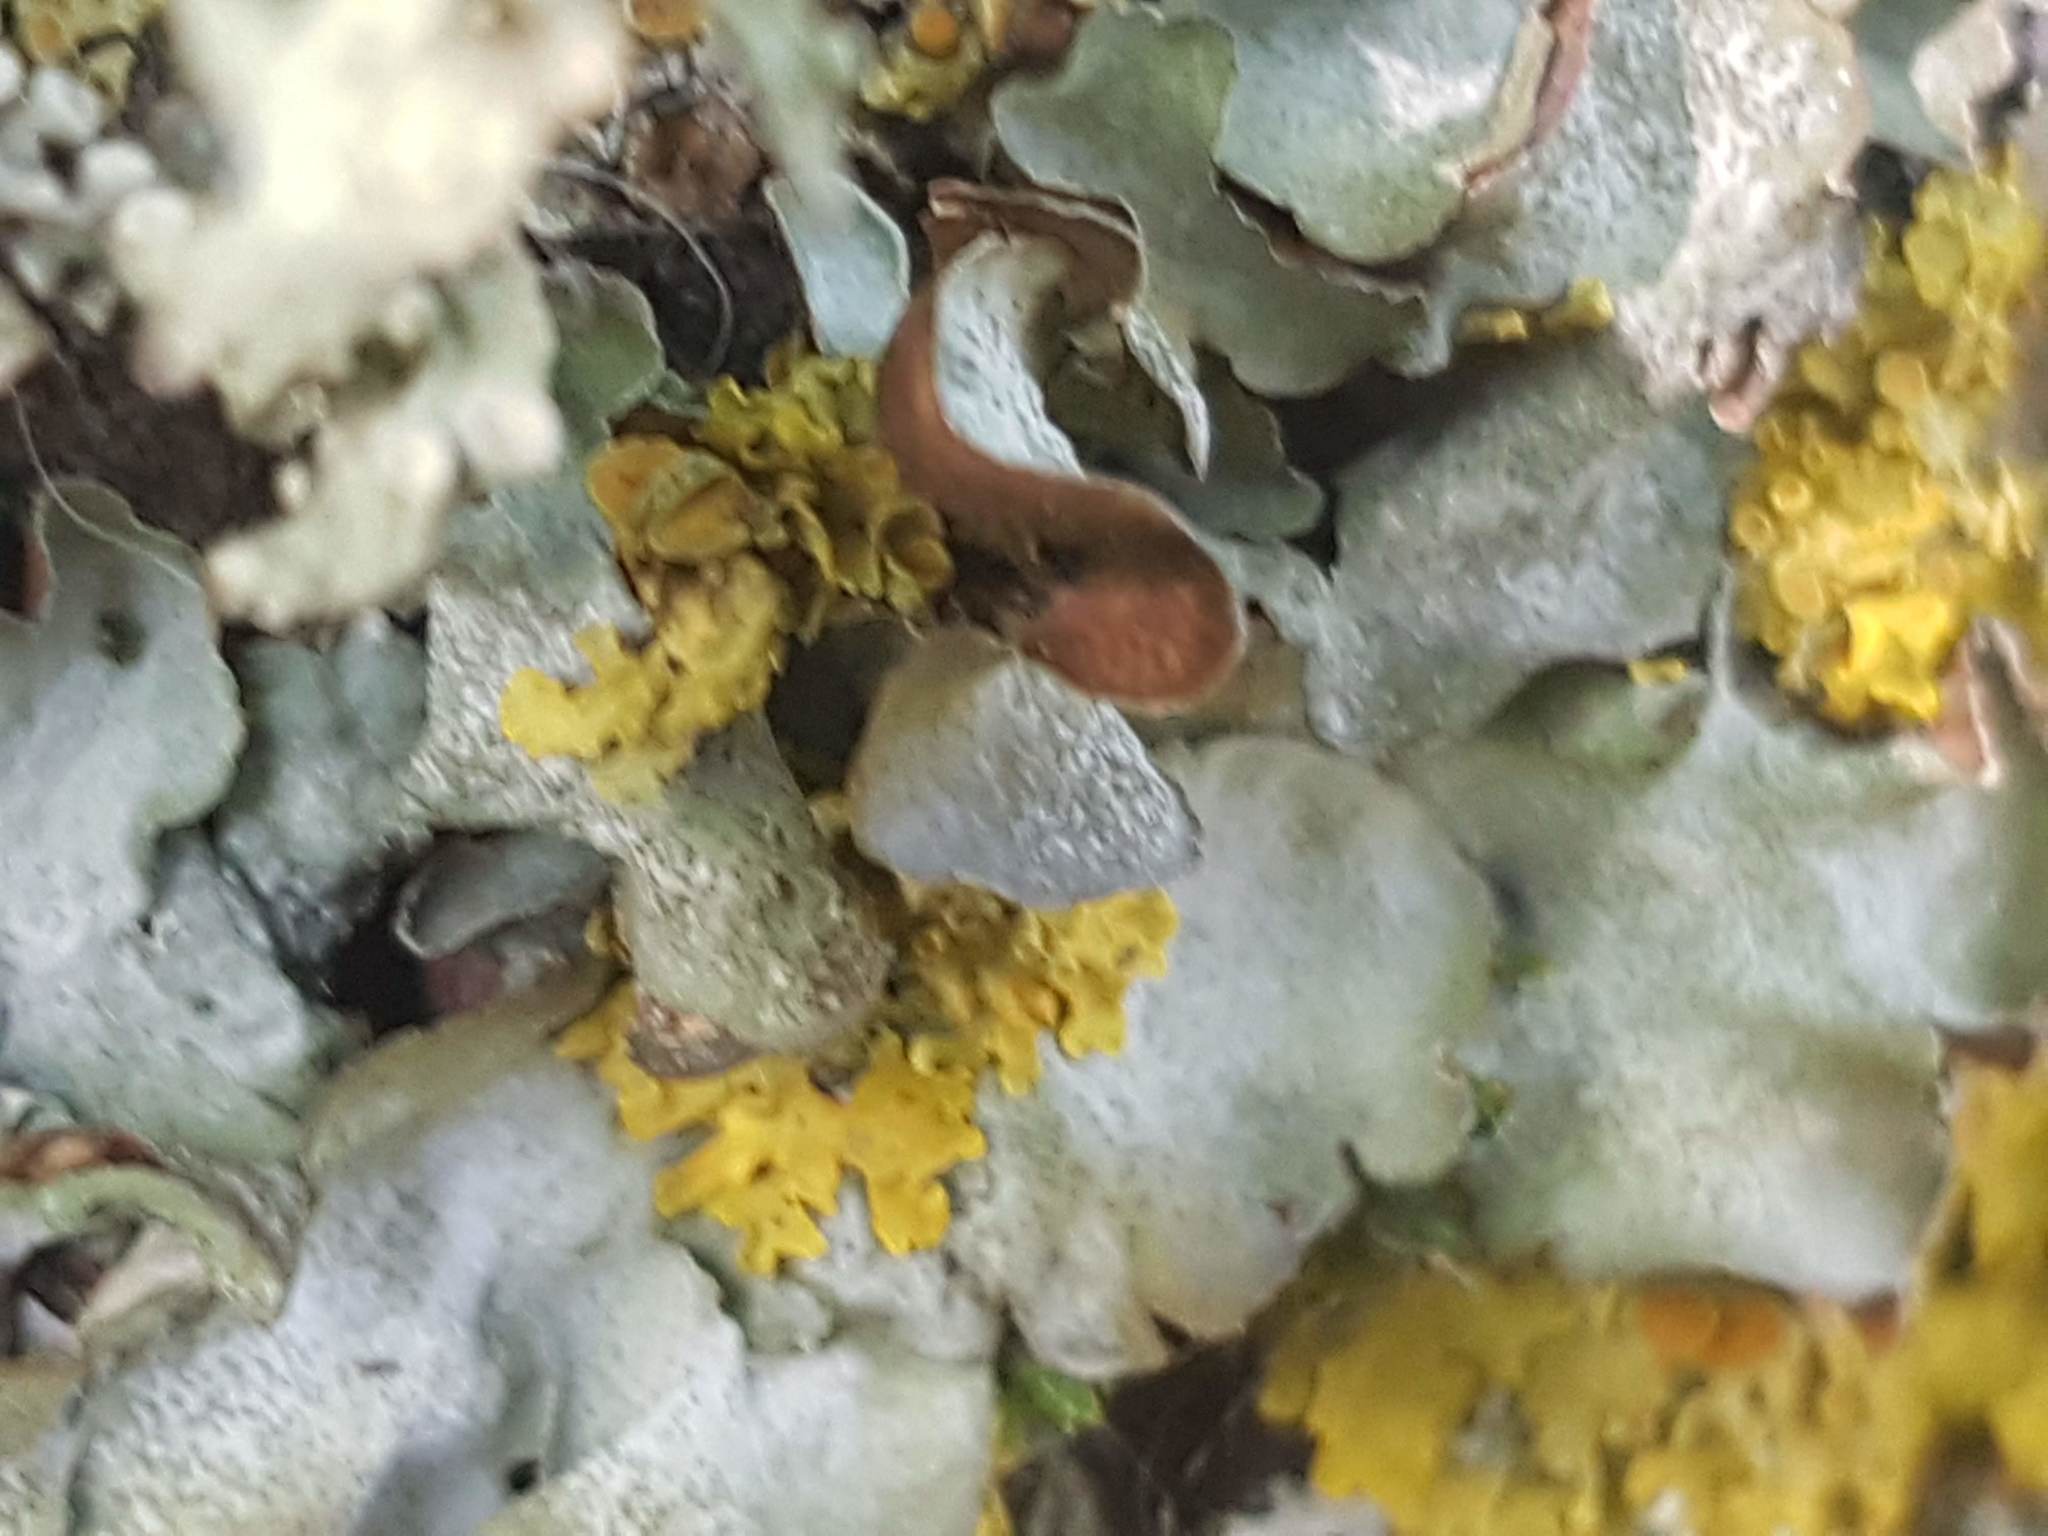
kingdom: Fungi
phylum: Ascomycota
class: Lecanoromycetes
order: Lecanorales
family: Parmeliaceae
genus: Pleurosticta
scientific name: Pleurosticta acetabulum
